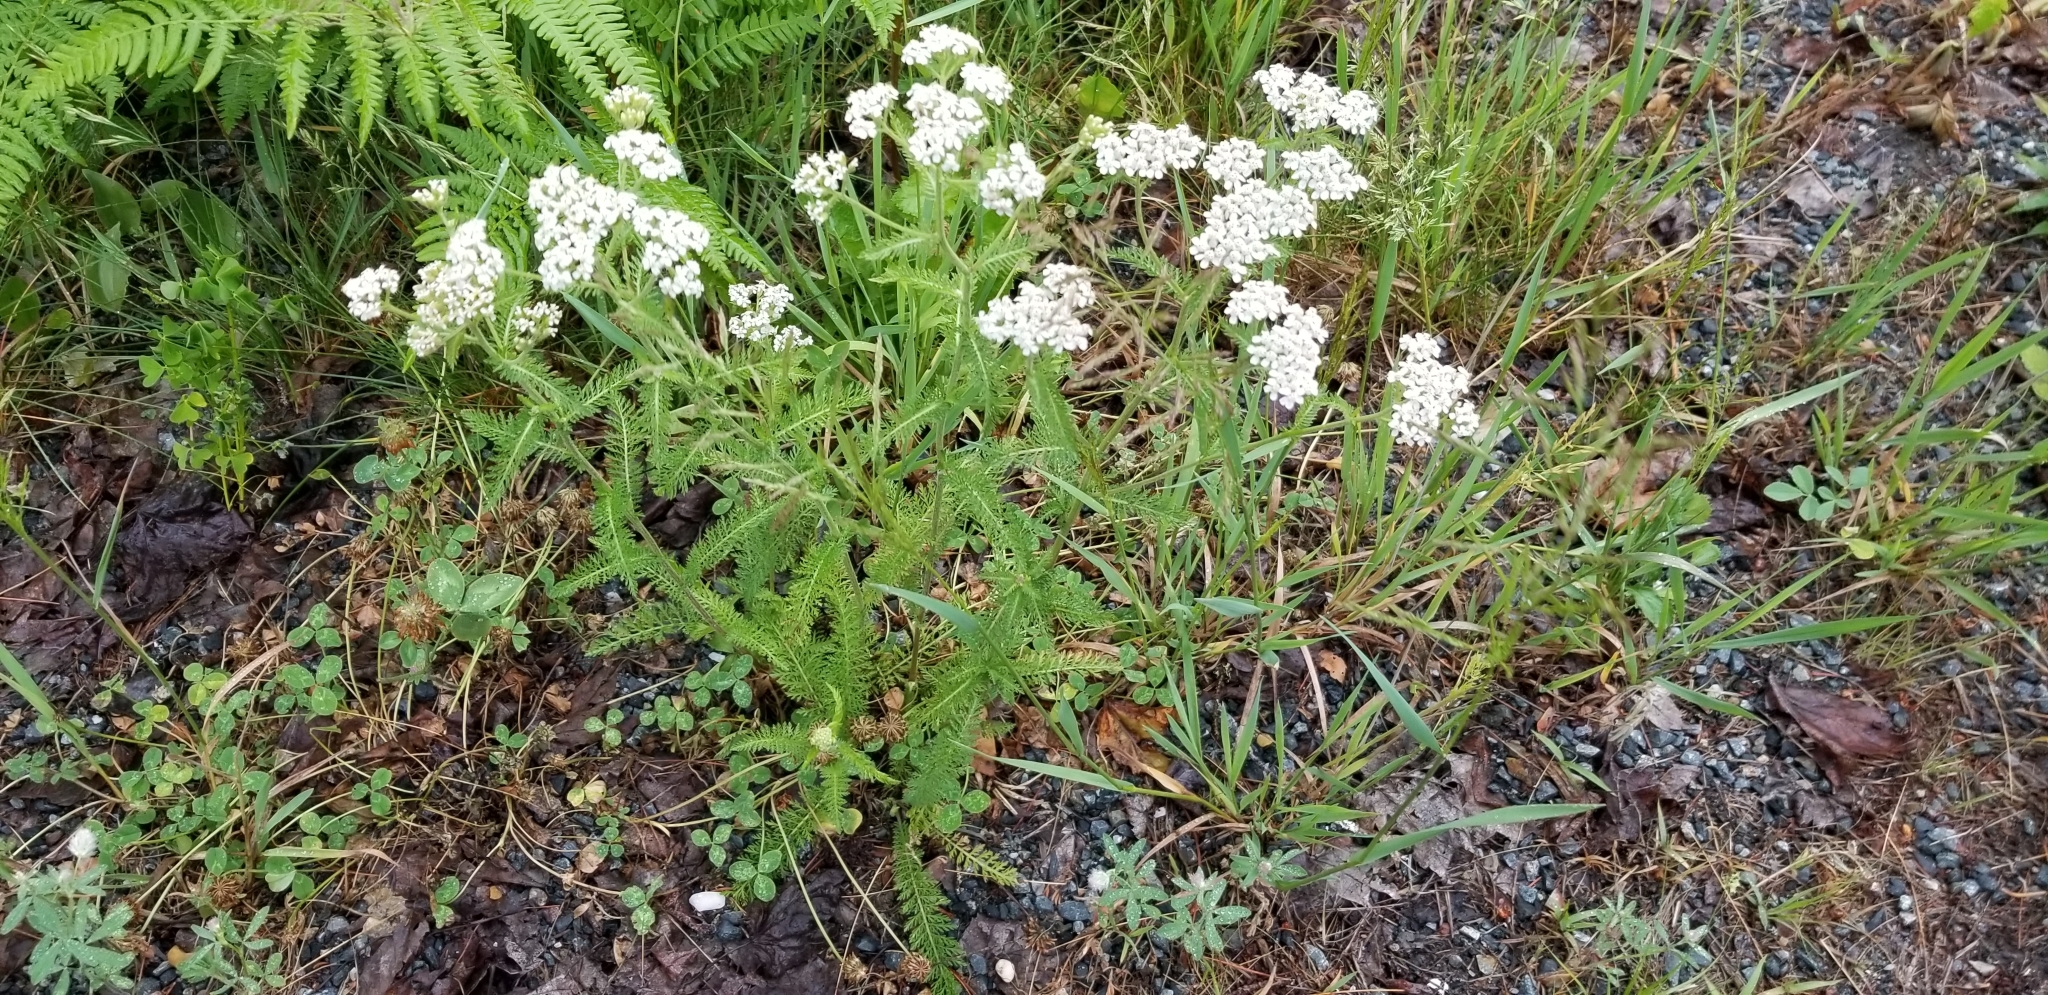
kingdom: Plantae
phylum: Tracheophyta
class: Magnoliopsida
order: Asterales
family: Asteraceae
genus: Achillea
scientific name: Achillea millefolium
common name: Yarrow
